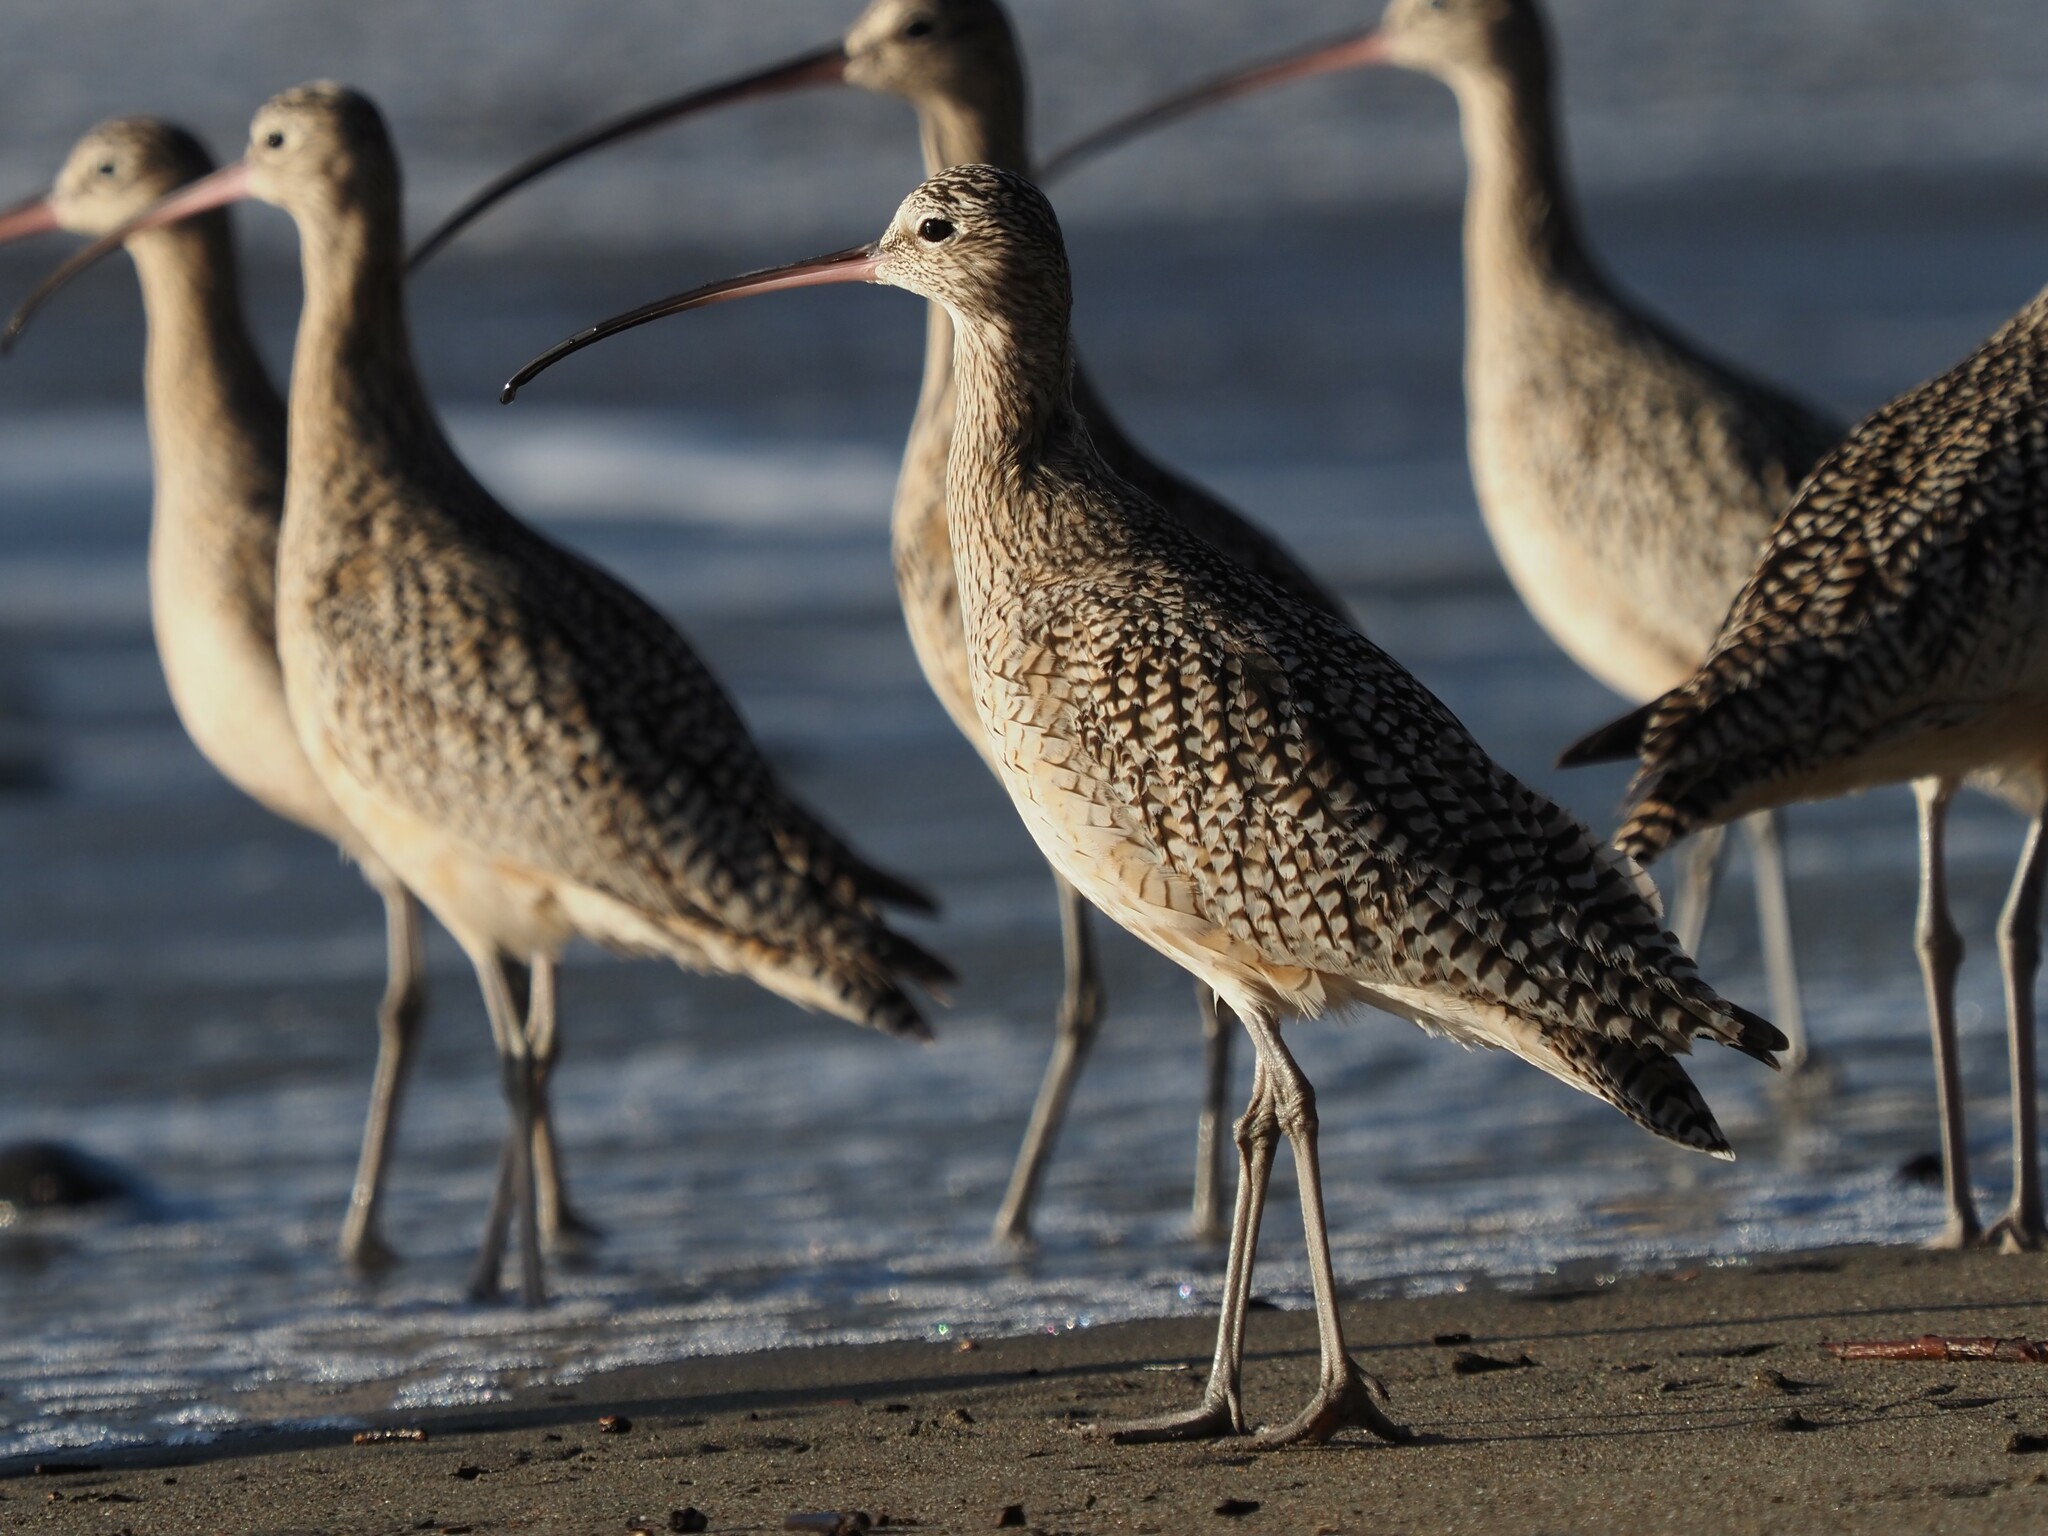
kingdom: Animalia
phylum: Chordata
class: Aves
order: Charadriiformes
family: Scolopacidae
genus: Numenius
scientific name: Numenius americanus
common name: Long-billed curlew
